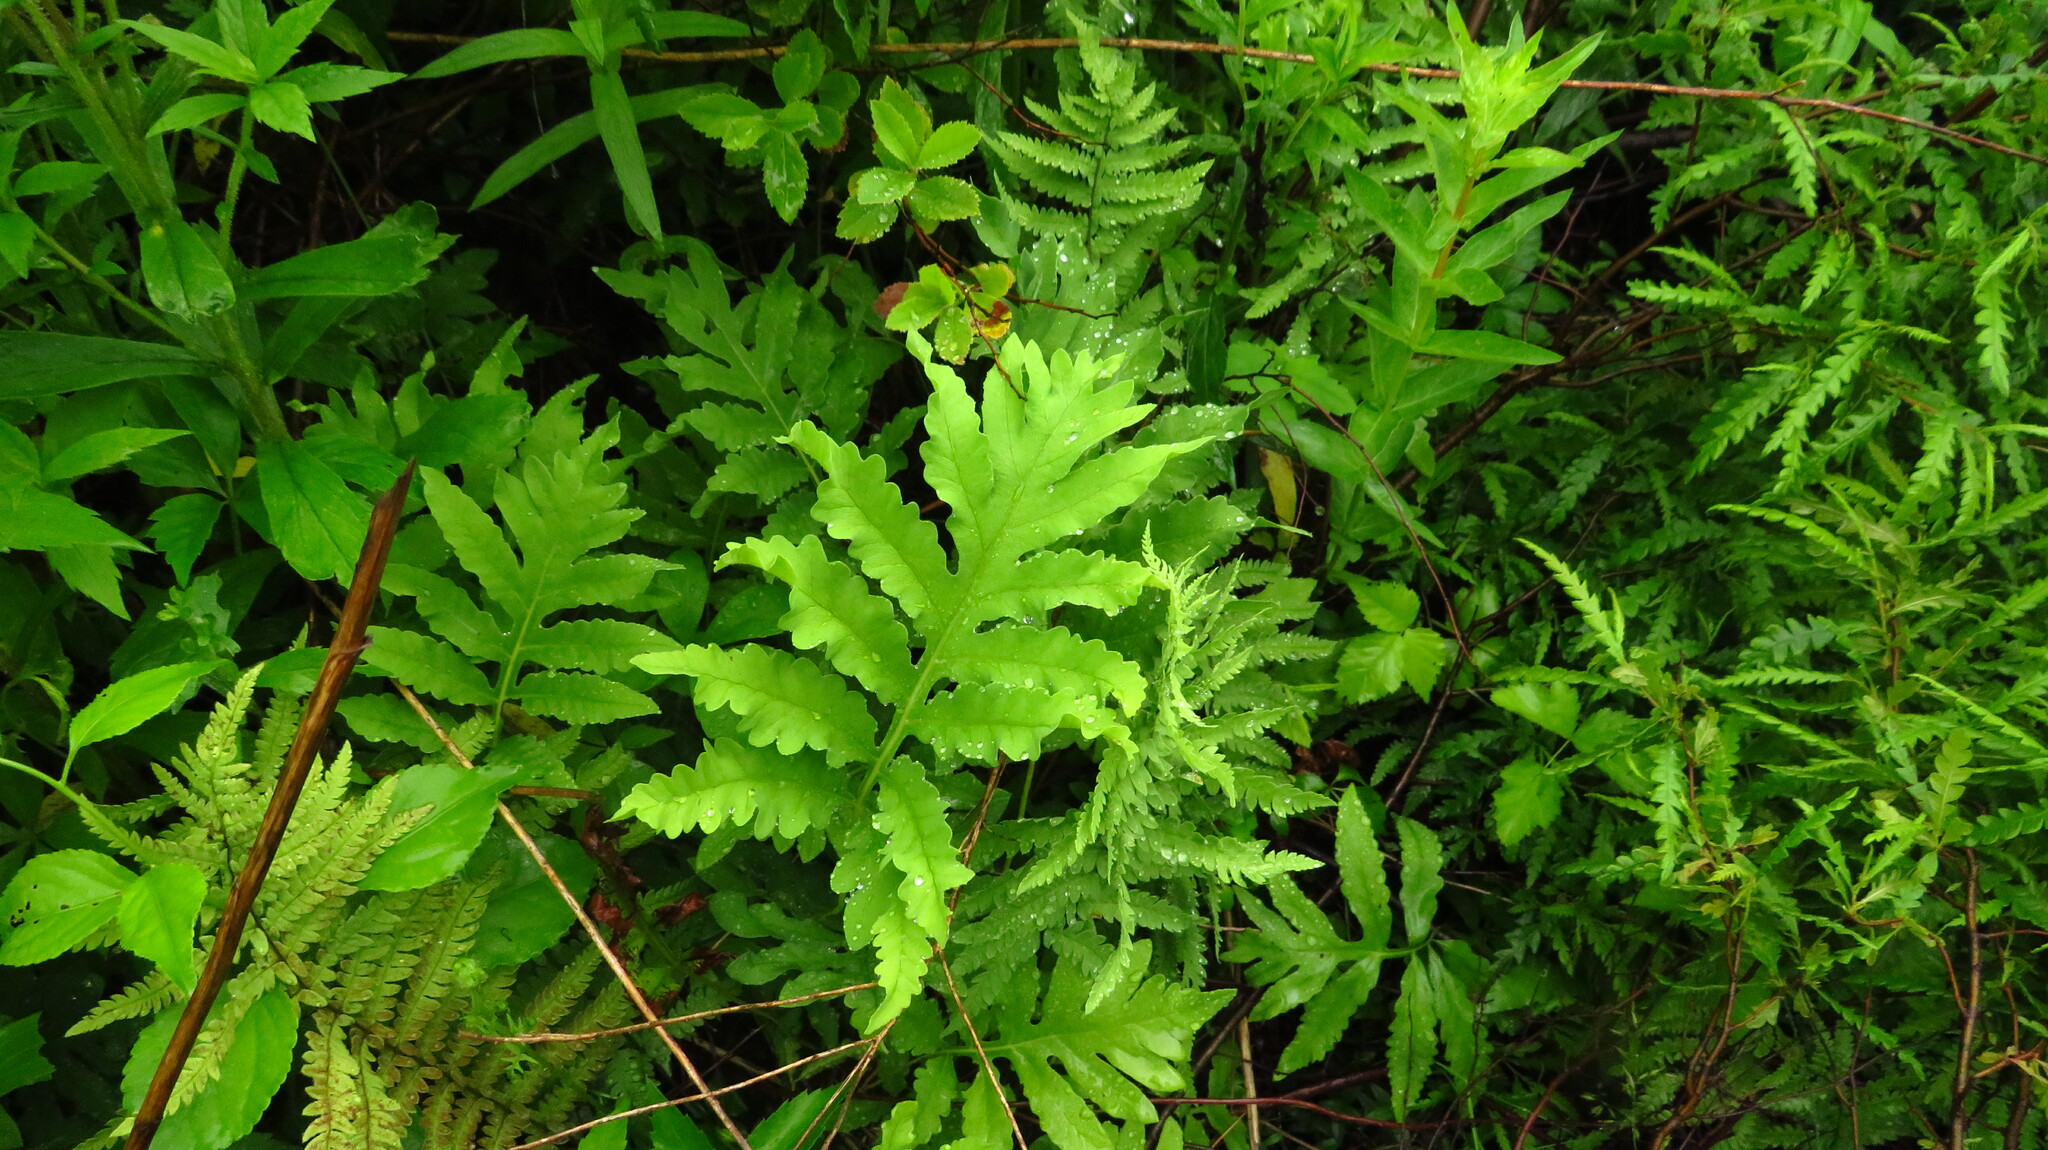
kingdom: Plantae
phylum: Tracheophyta
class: Polypodiopsida
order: Polypodiales
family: Onocleaceae
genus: Onoclea
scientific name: Onoclea sensibilis
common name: Sensitive fern
